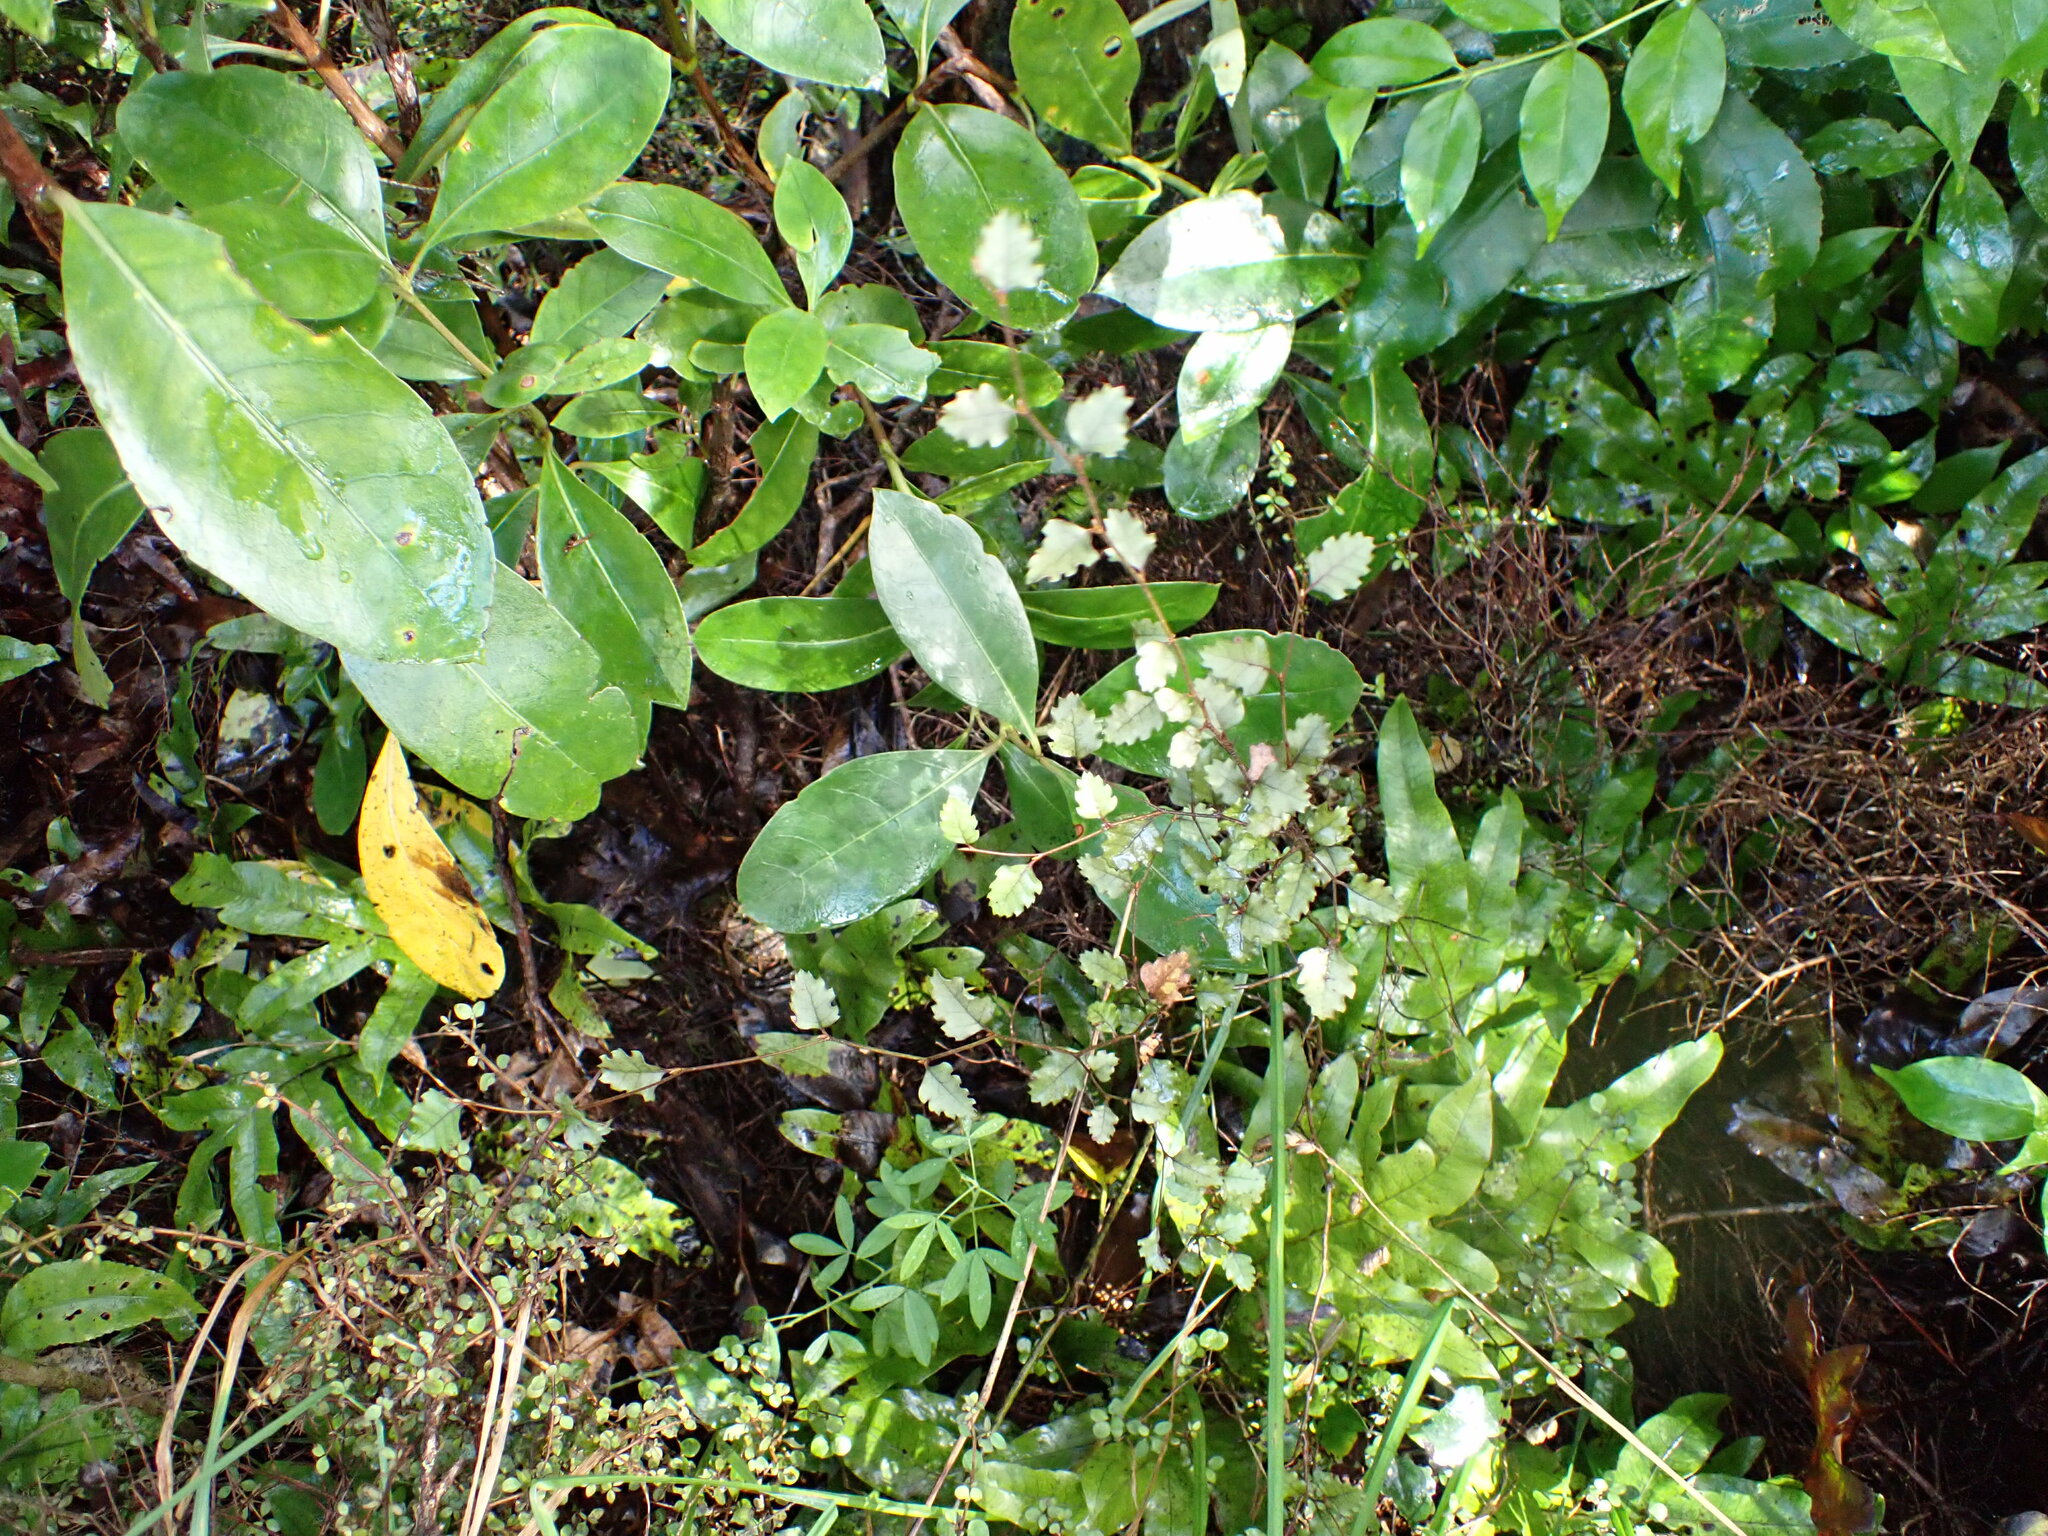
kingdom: Plantae
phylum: Tracheophyta
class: Magnoliopsida
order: Fagales
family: Nothofagaceae
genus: Nothofagus
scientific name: Nothofagus fusca
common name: Red beech
